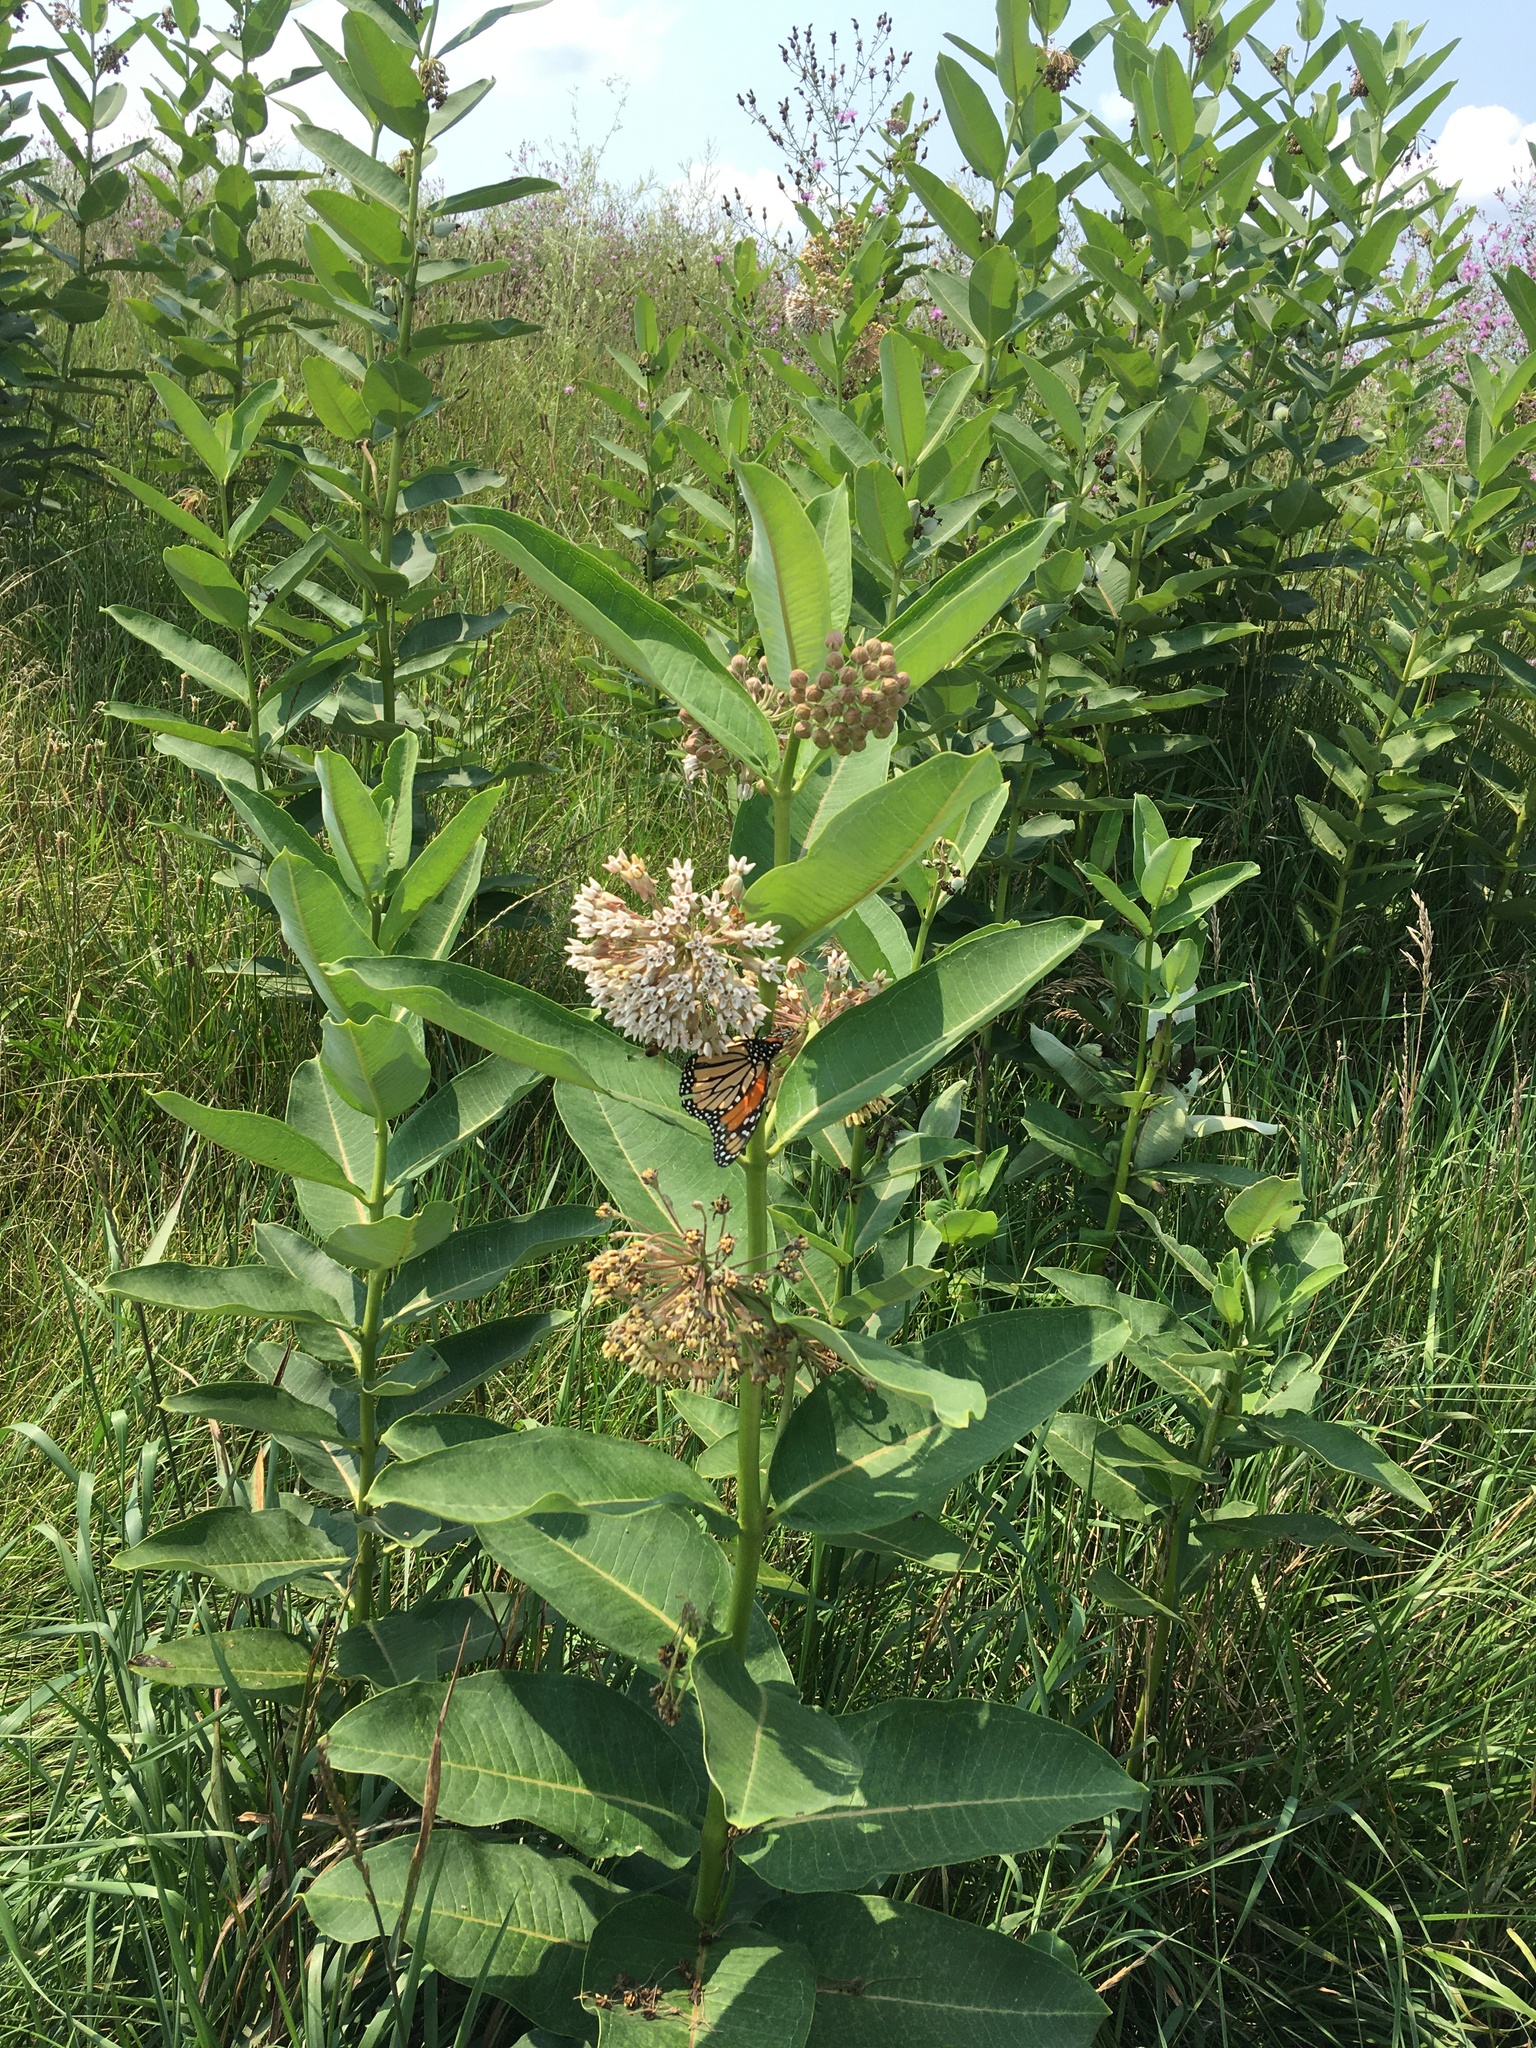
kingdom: Animalia
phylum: Arthropoda
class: Insecta
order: Lepidoptera
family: Nymphalidae
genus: Danaus
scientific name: Danaus plexippus
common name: Monarch
